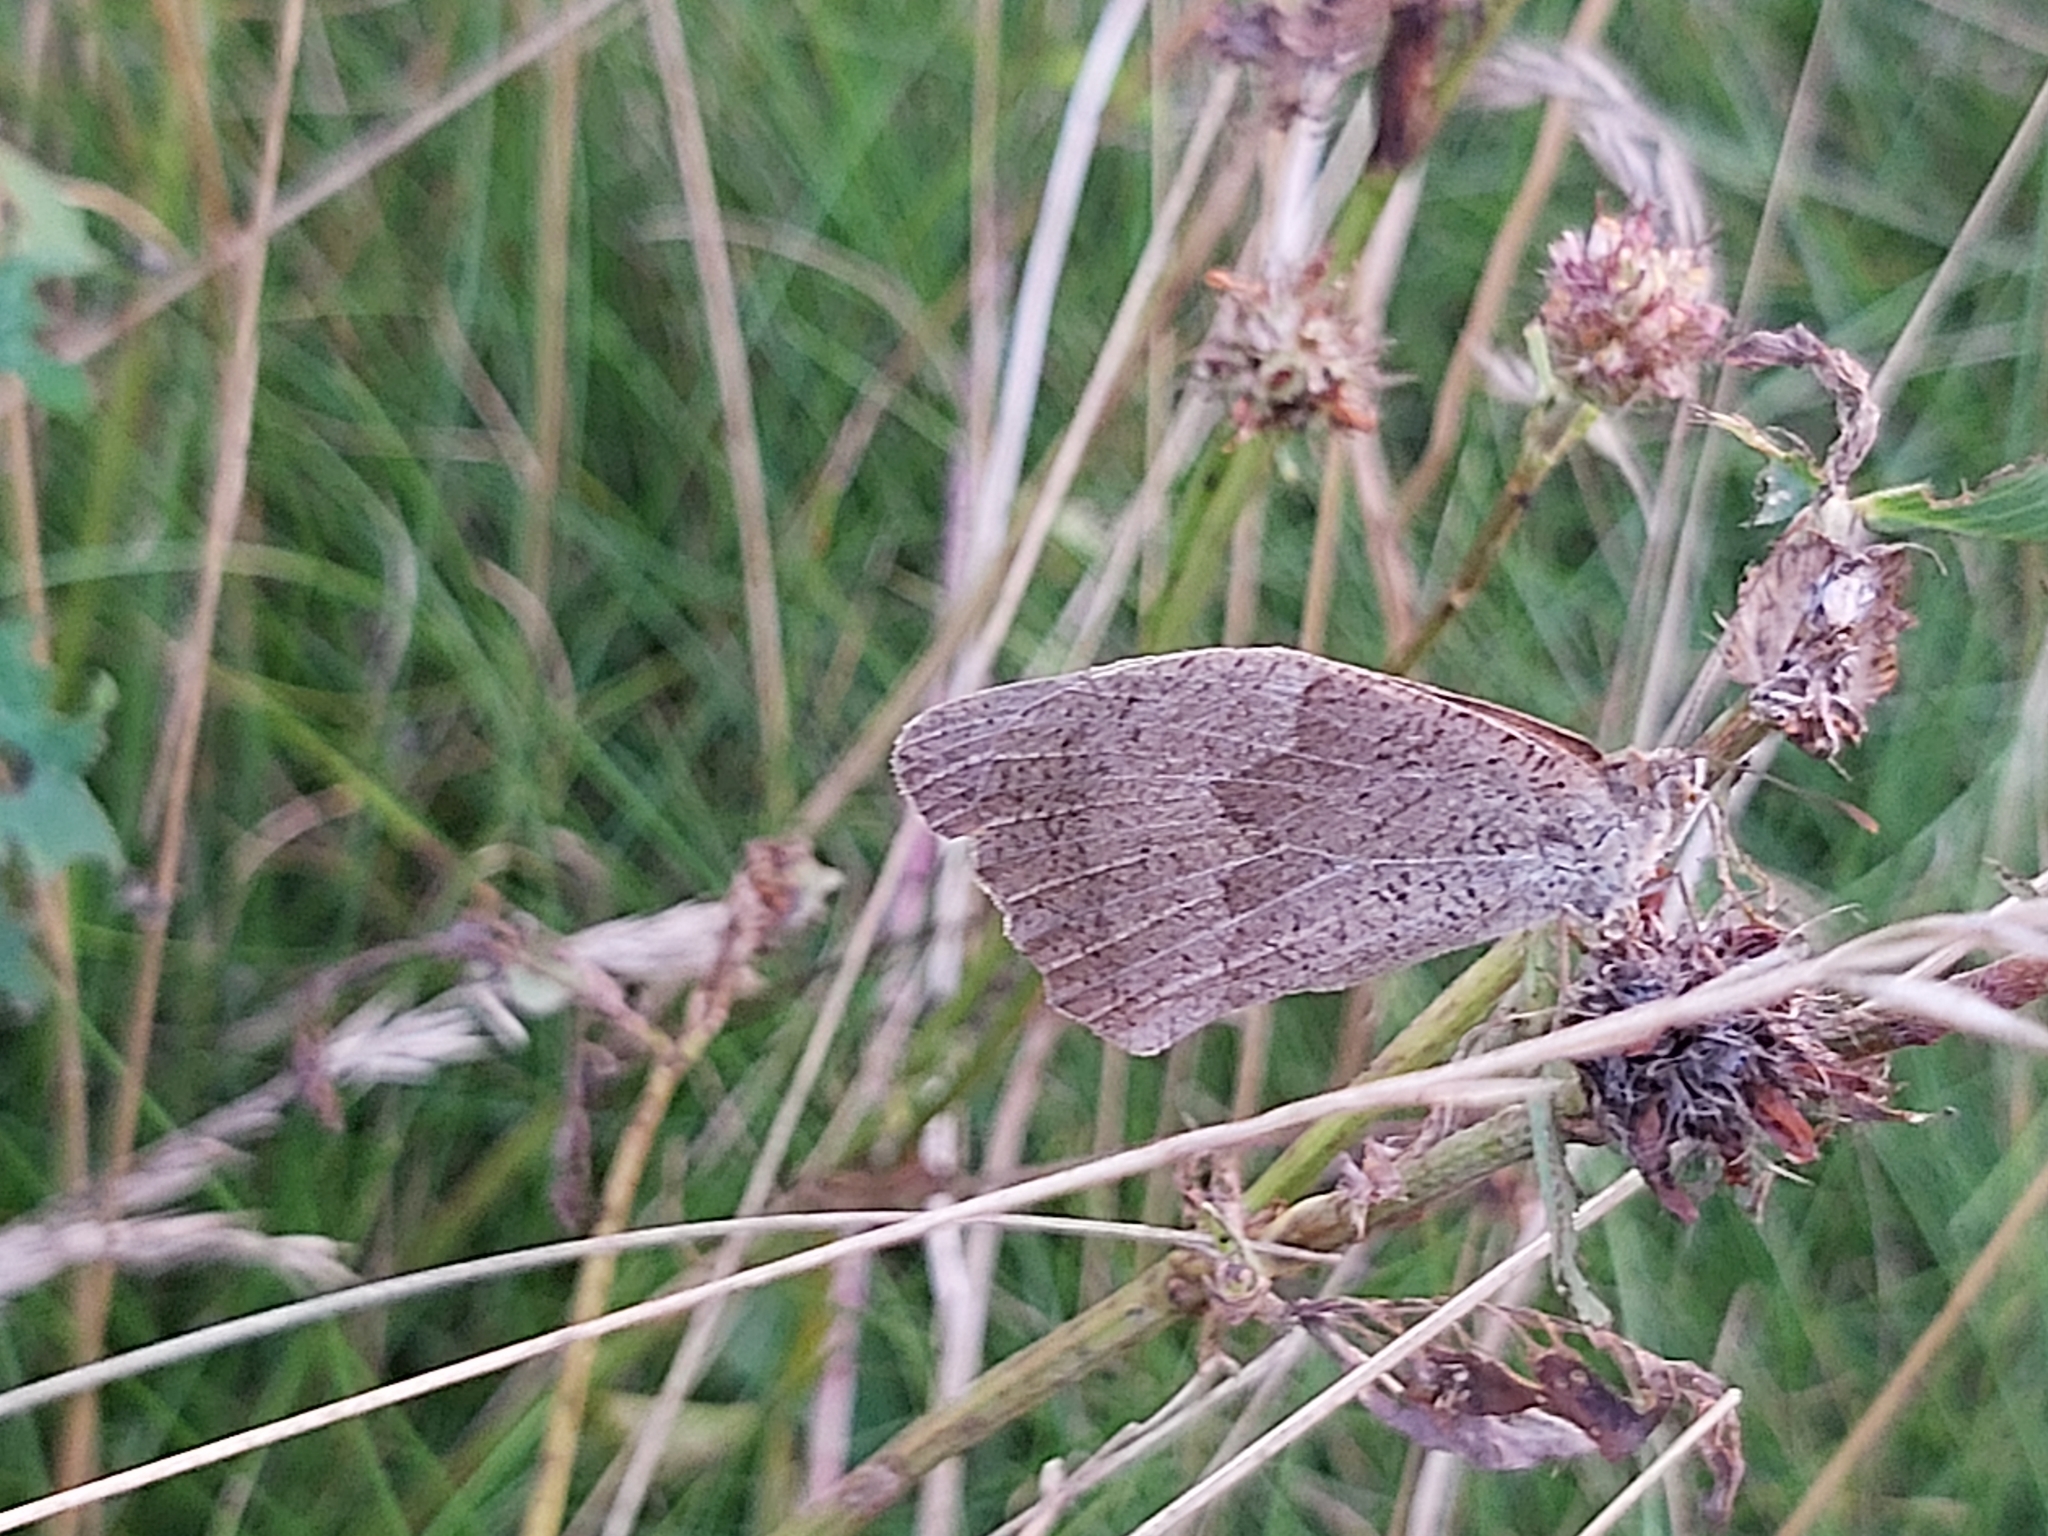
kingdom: Animalia
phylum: Arthropoda
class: Insecta
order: Lepidoptera
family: Nymphalidae
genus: Maniola
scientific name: Maniola jurtina
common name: Meadow brown
